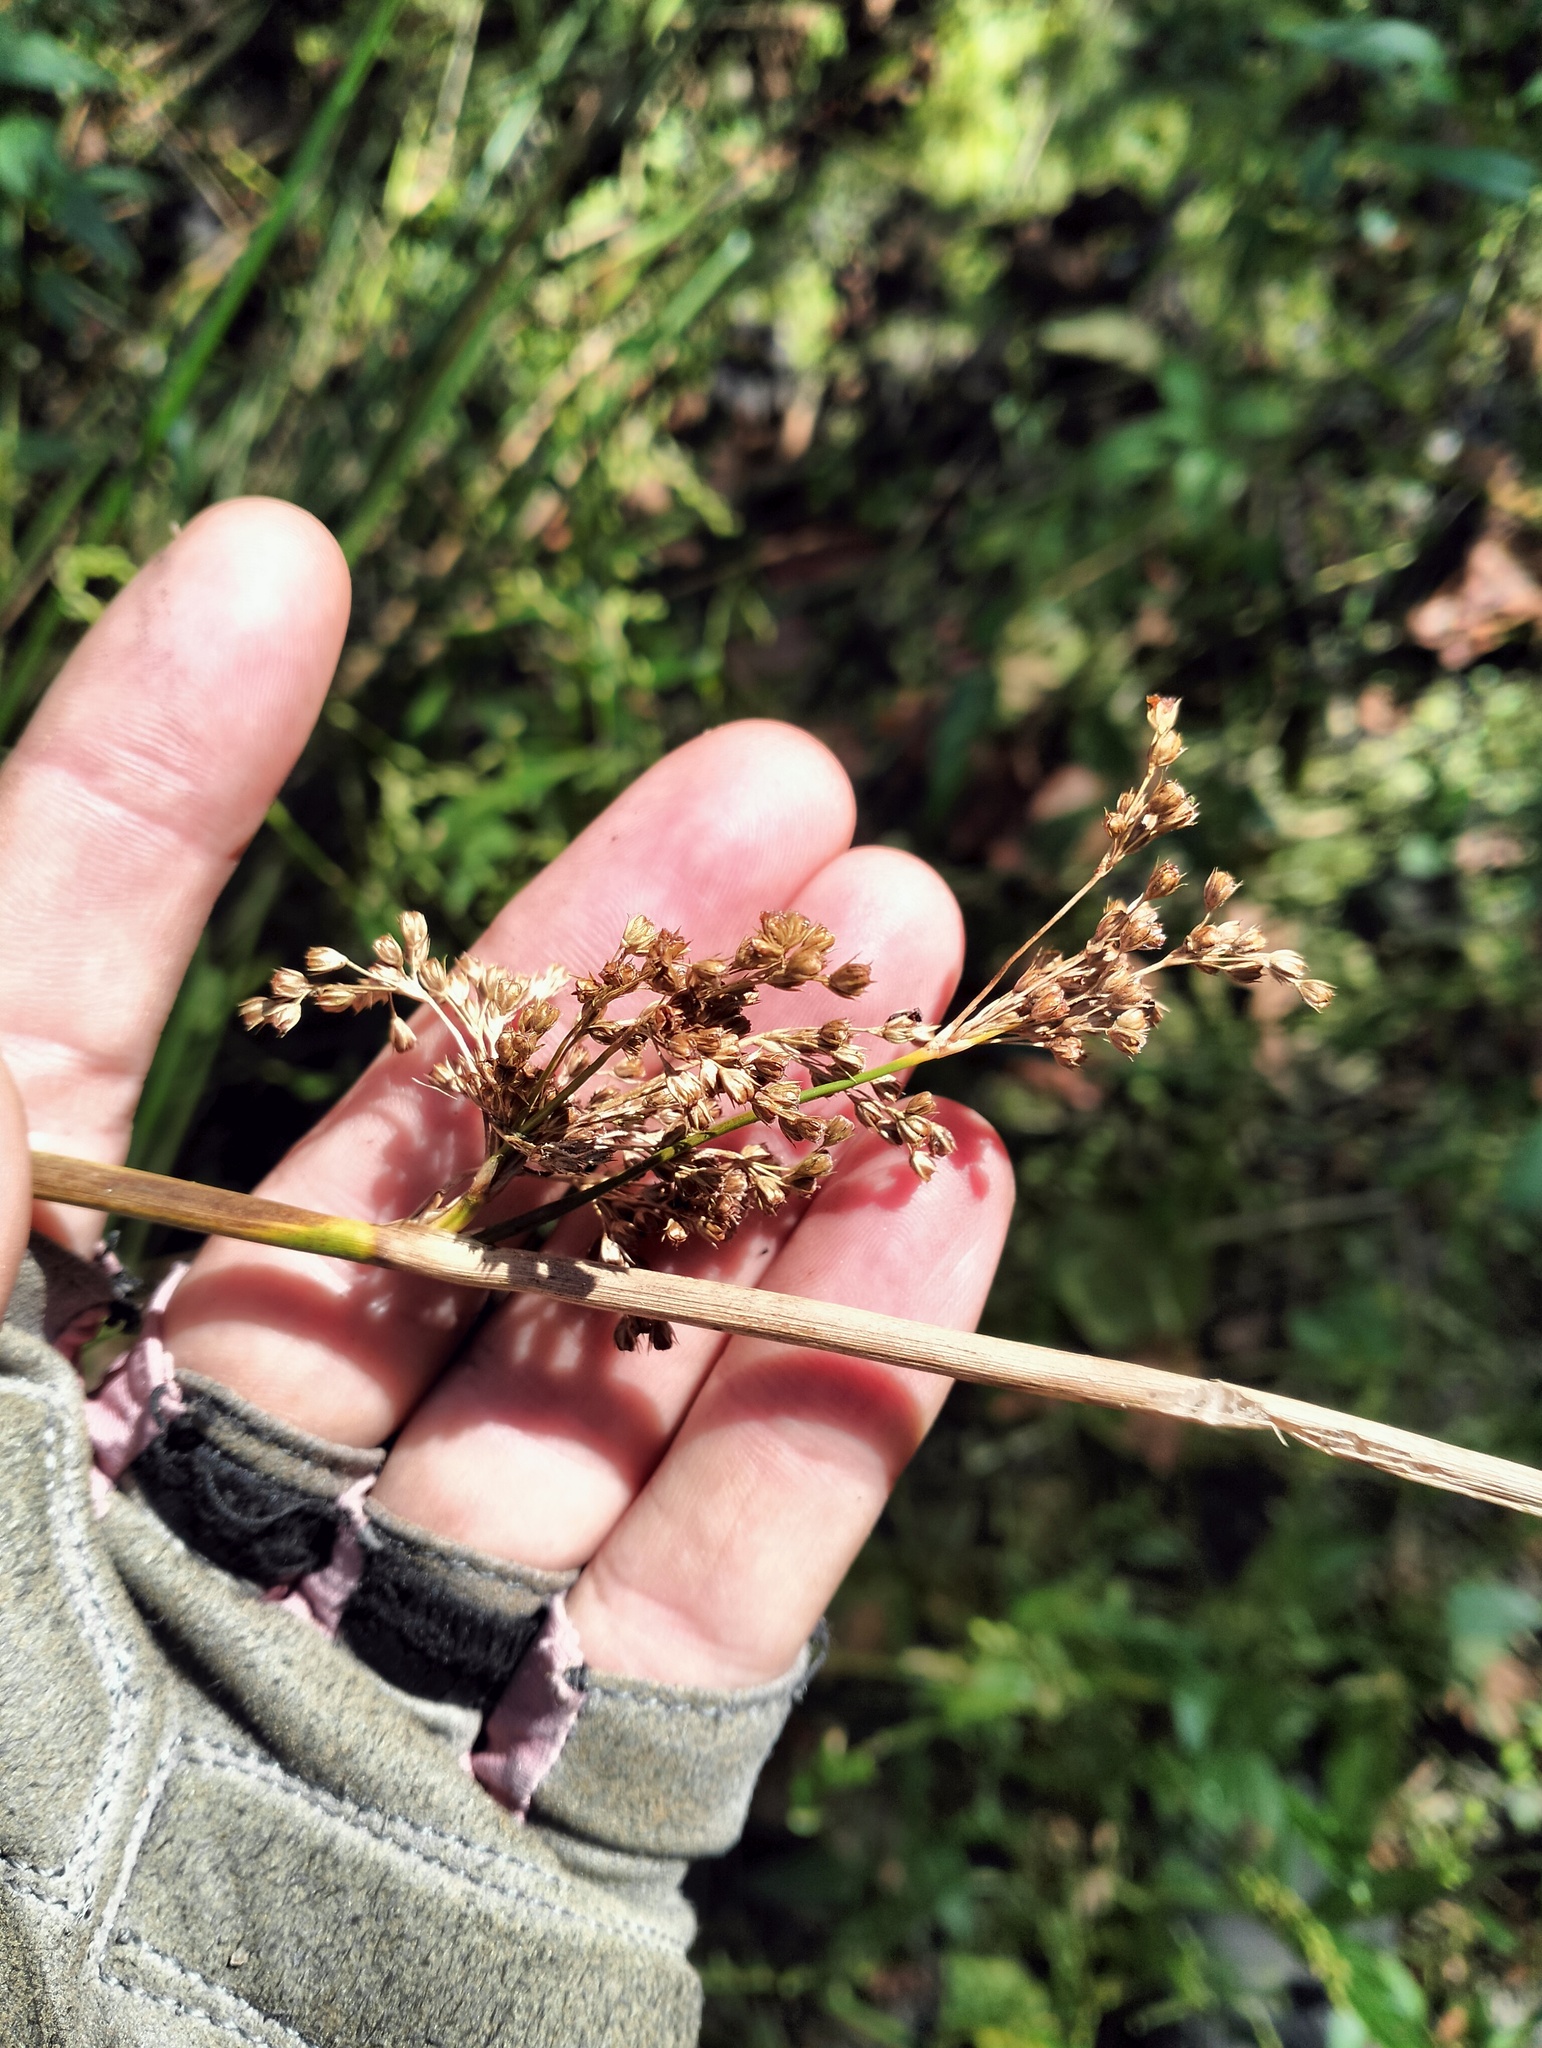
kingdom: Plantae
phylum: Tracheophyta
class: Liliopsida
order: Poales
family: Juncaceae
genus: Juncus
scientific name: Juncus effusus
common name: Soft rush
